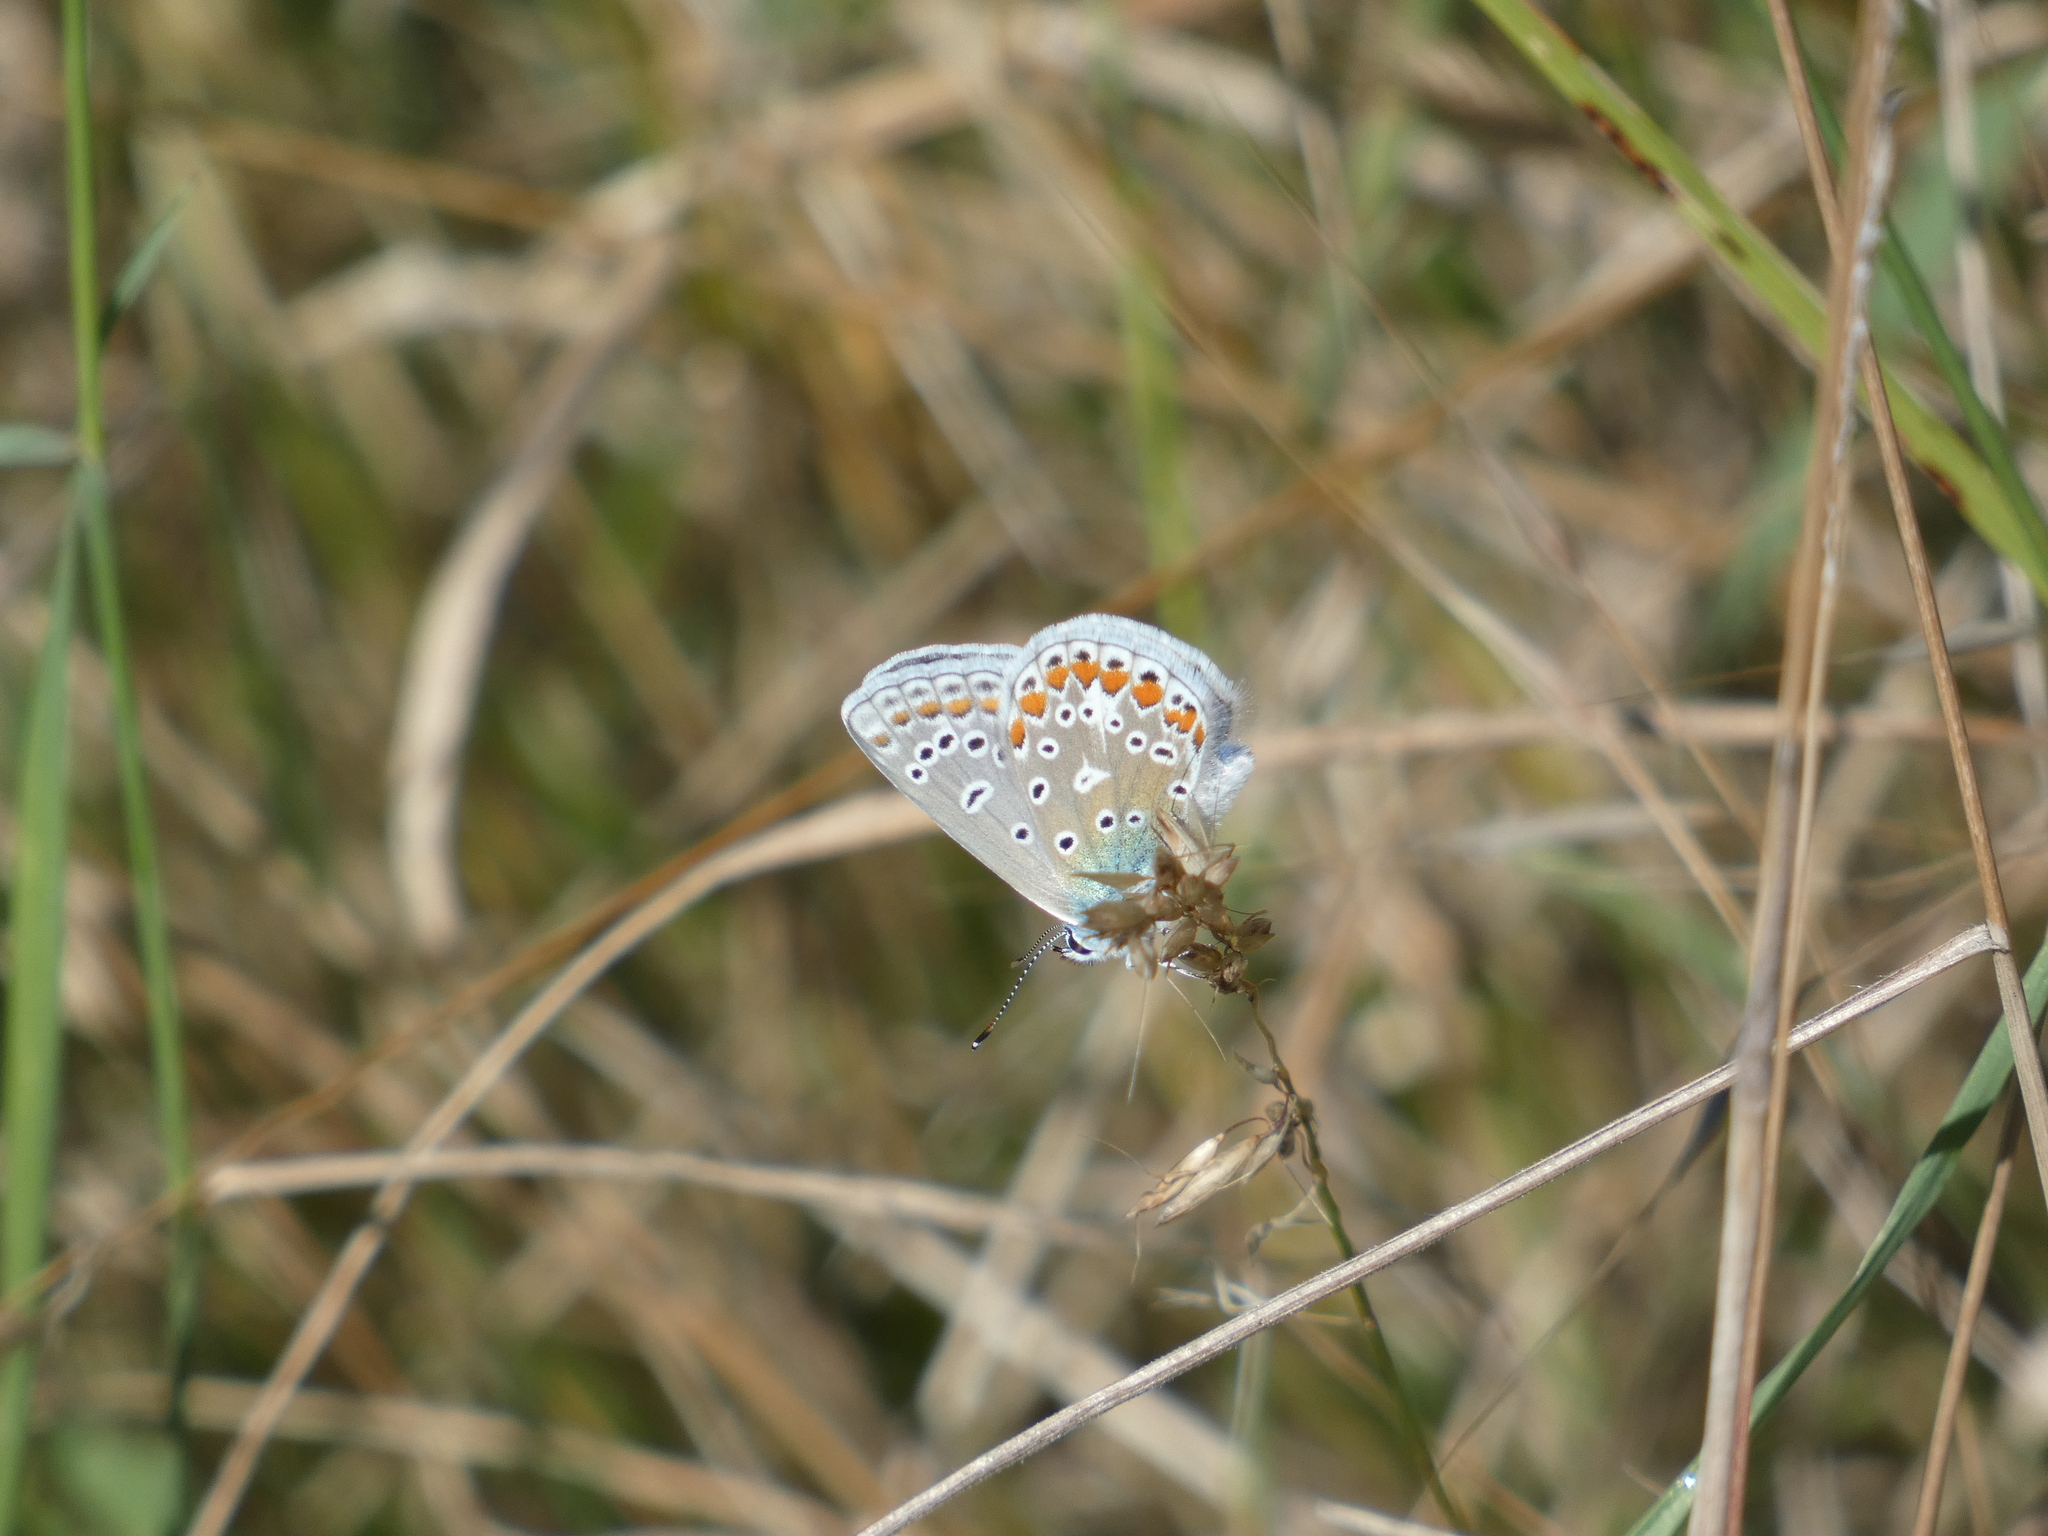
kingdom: Animalia
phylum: Arthropoda
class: Insecta
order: Lepidoptera
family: Lycaenidae
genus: Polyommatus
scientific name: Polyommatus icarus
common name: Common blue
